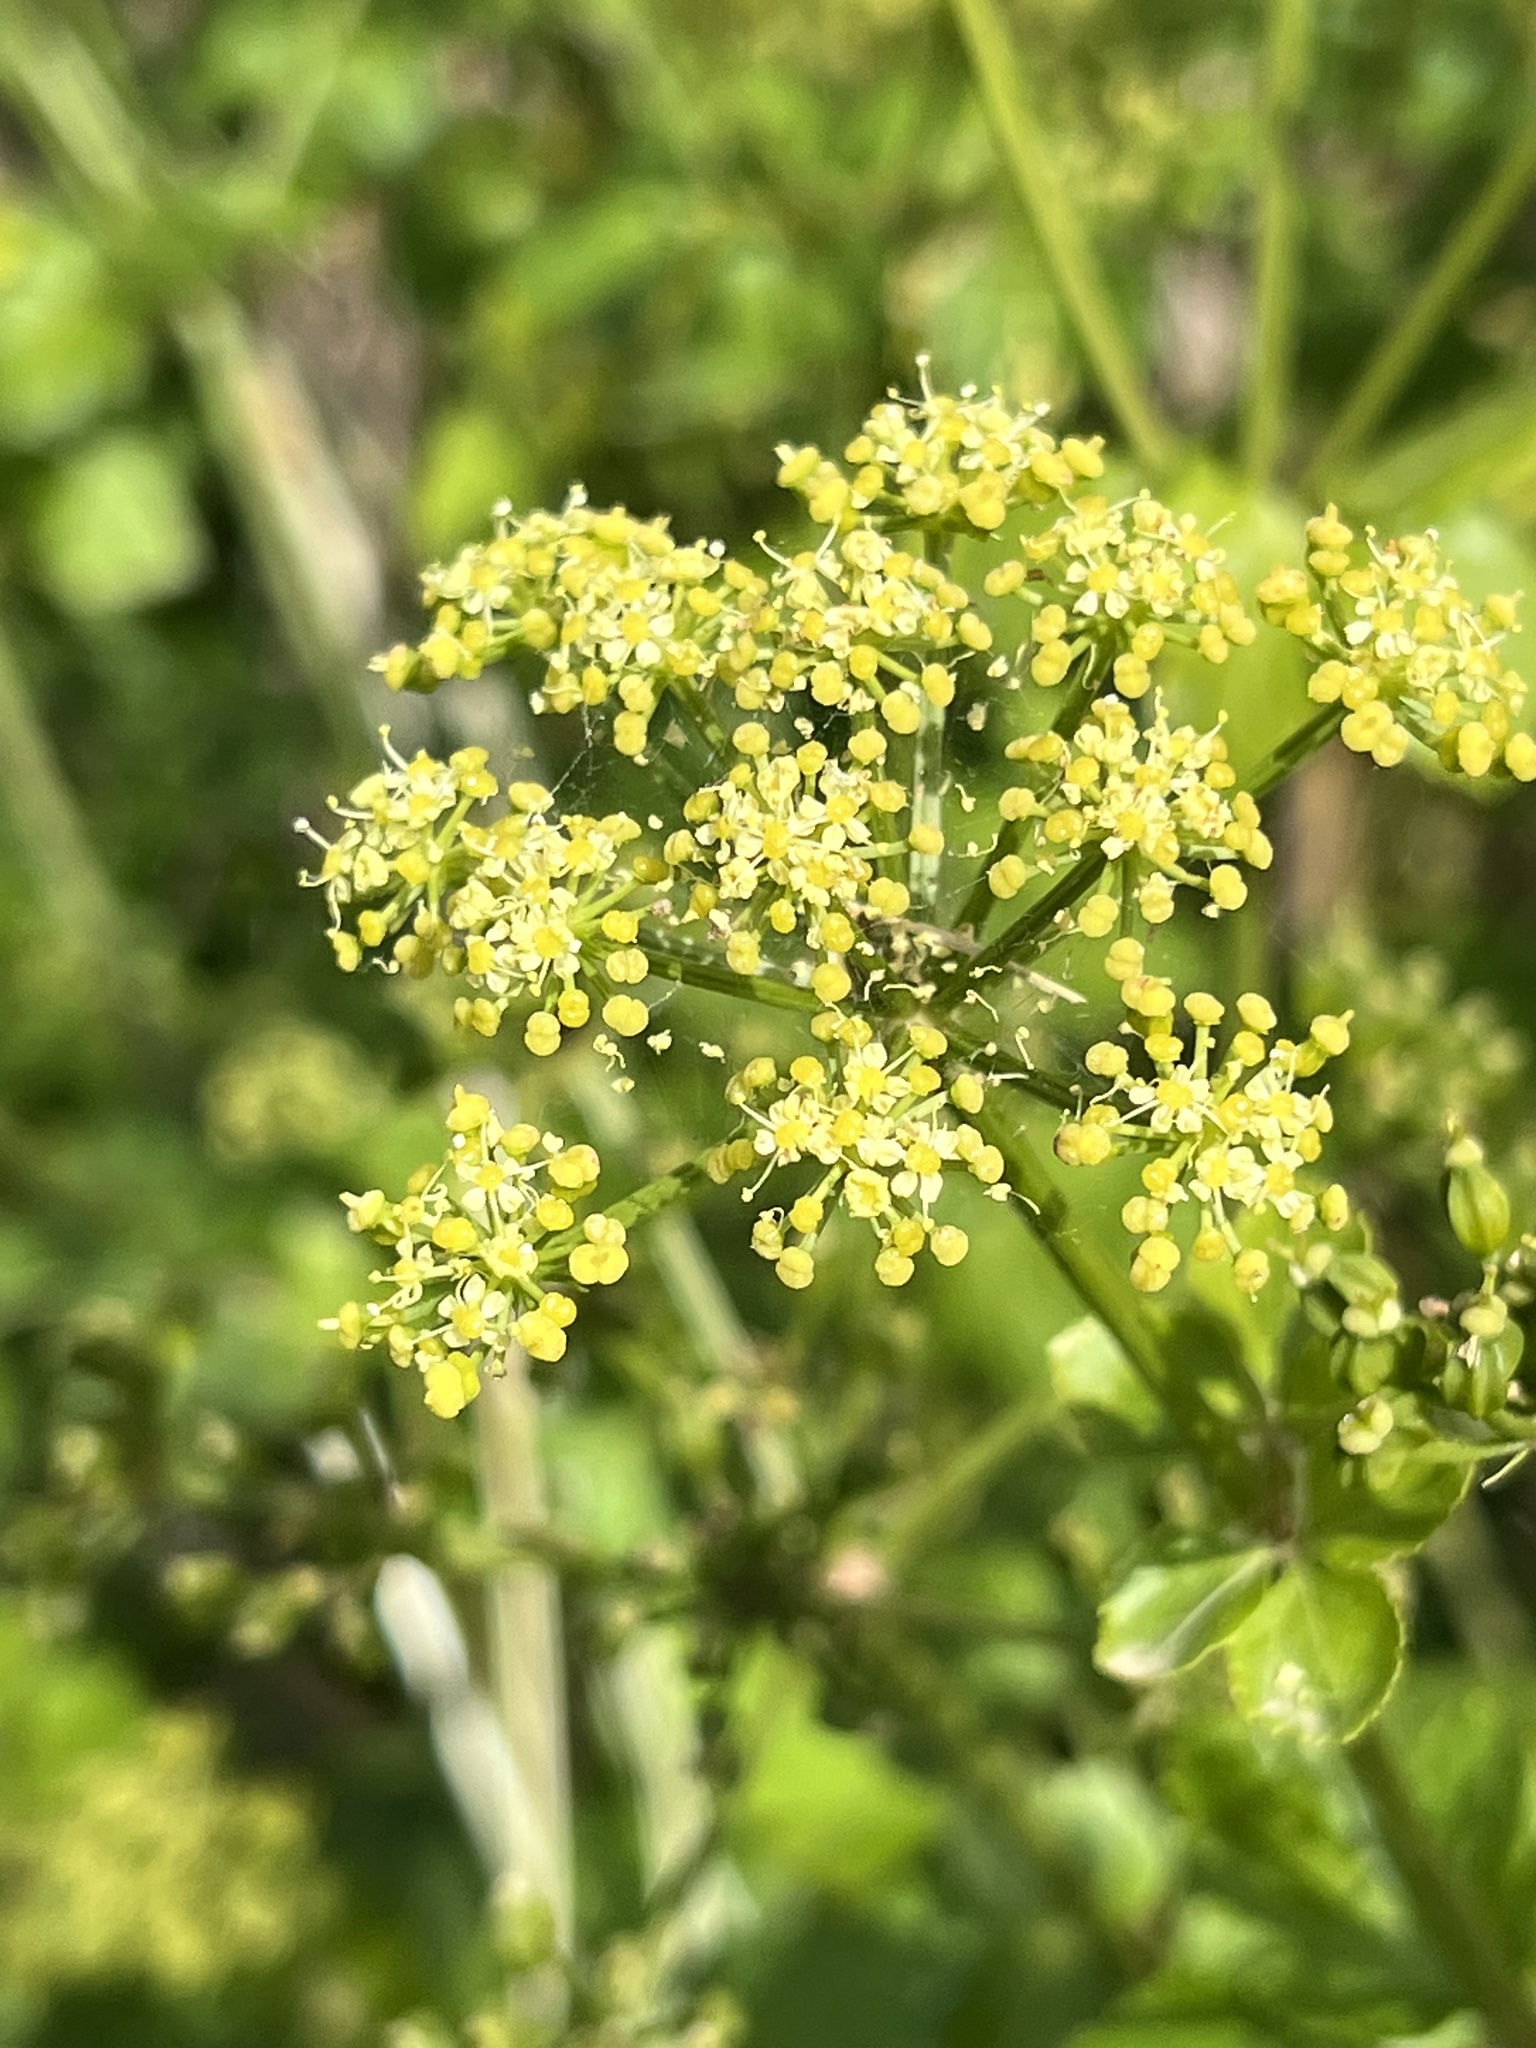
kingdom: Plantae
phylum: Tracheophyta
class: Magnoliopsida
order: Apiales
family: Apiaceae
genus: Smyrnium
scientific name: Smyrnium olusatrum
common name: Alexanders
